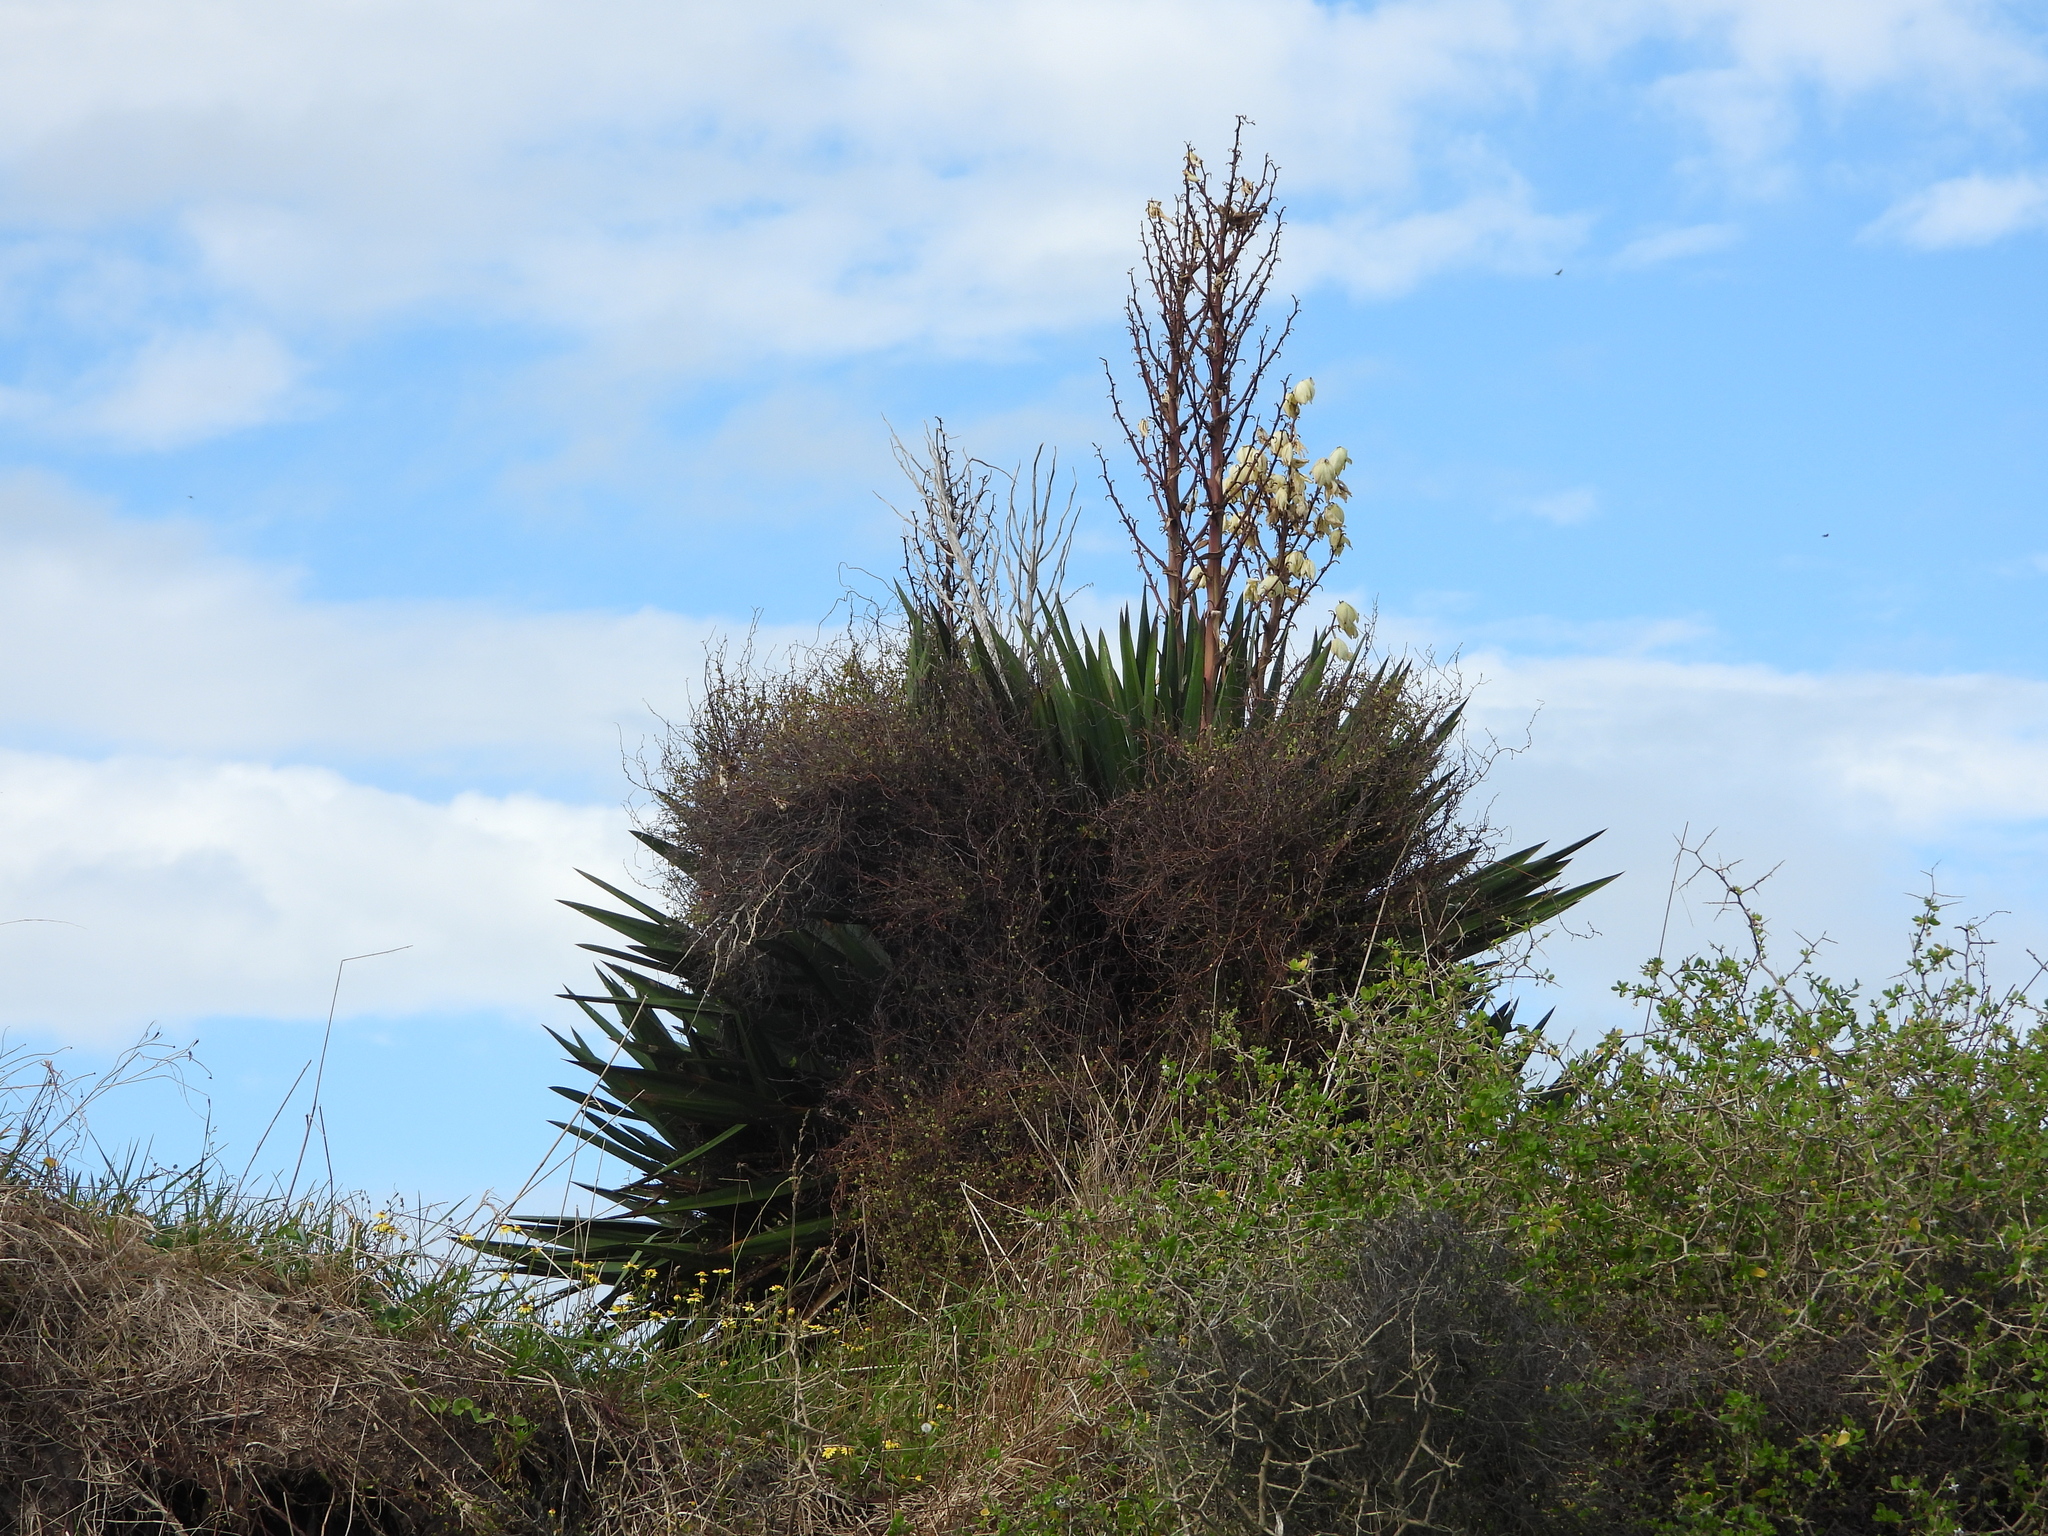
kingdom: Plantae
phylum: Tracheophyta
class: Liliopsida
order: Asparagales
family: Asparagaceae
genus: Yucca
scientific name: Yucca gloriosa
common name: Spanish-dagger
